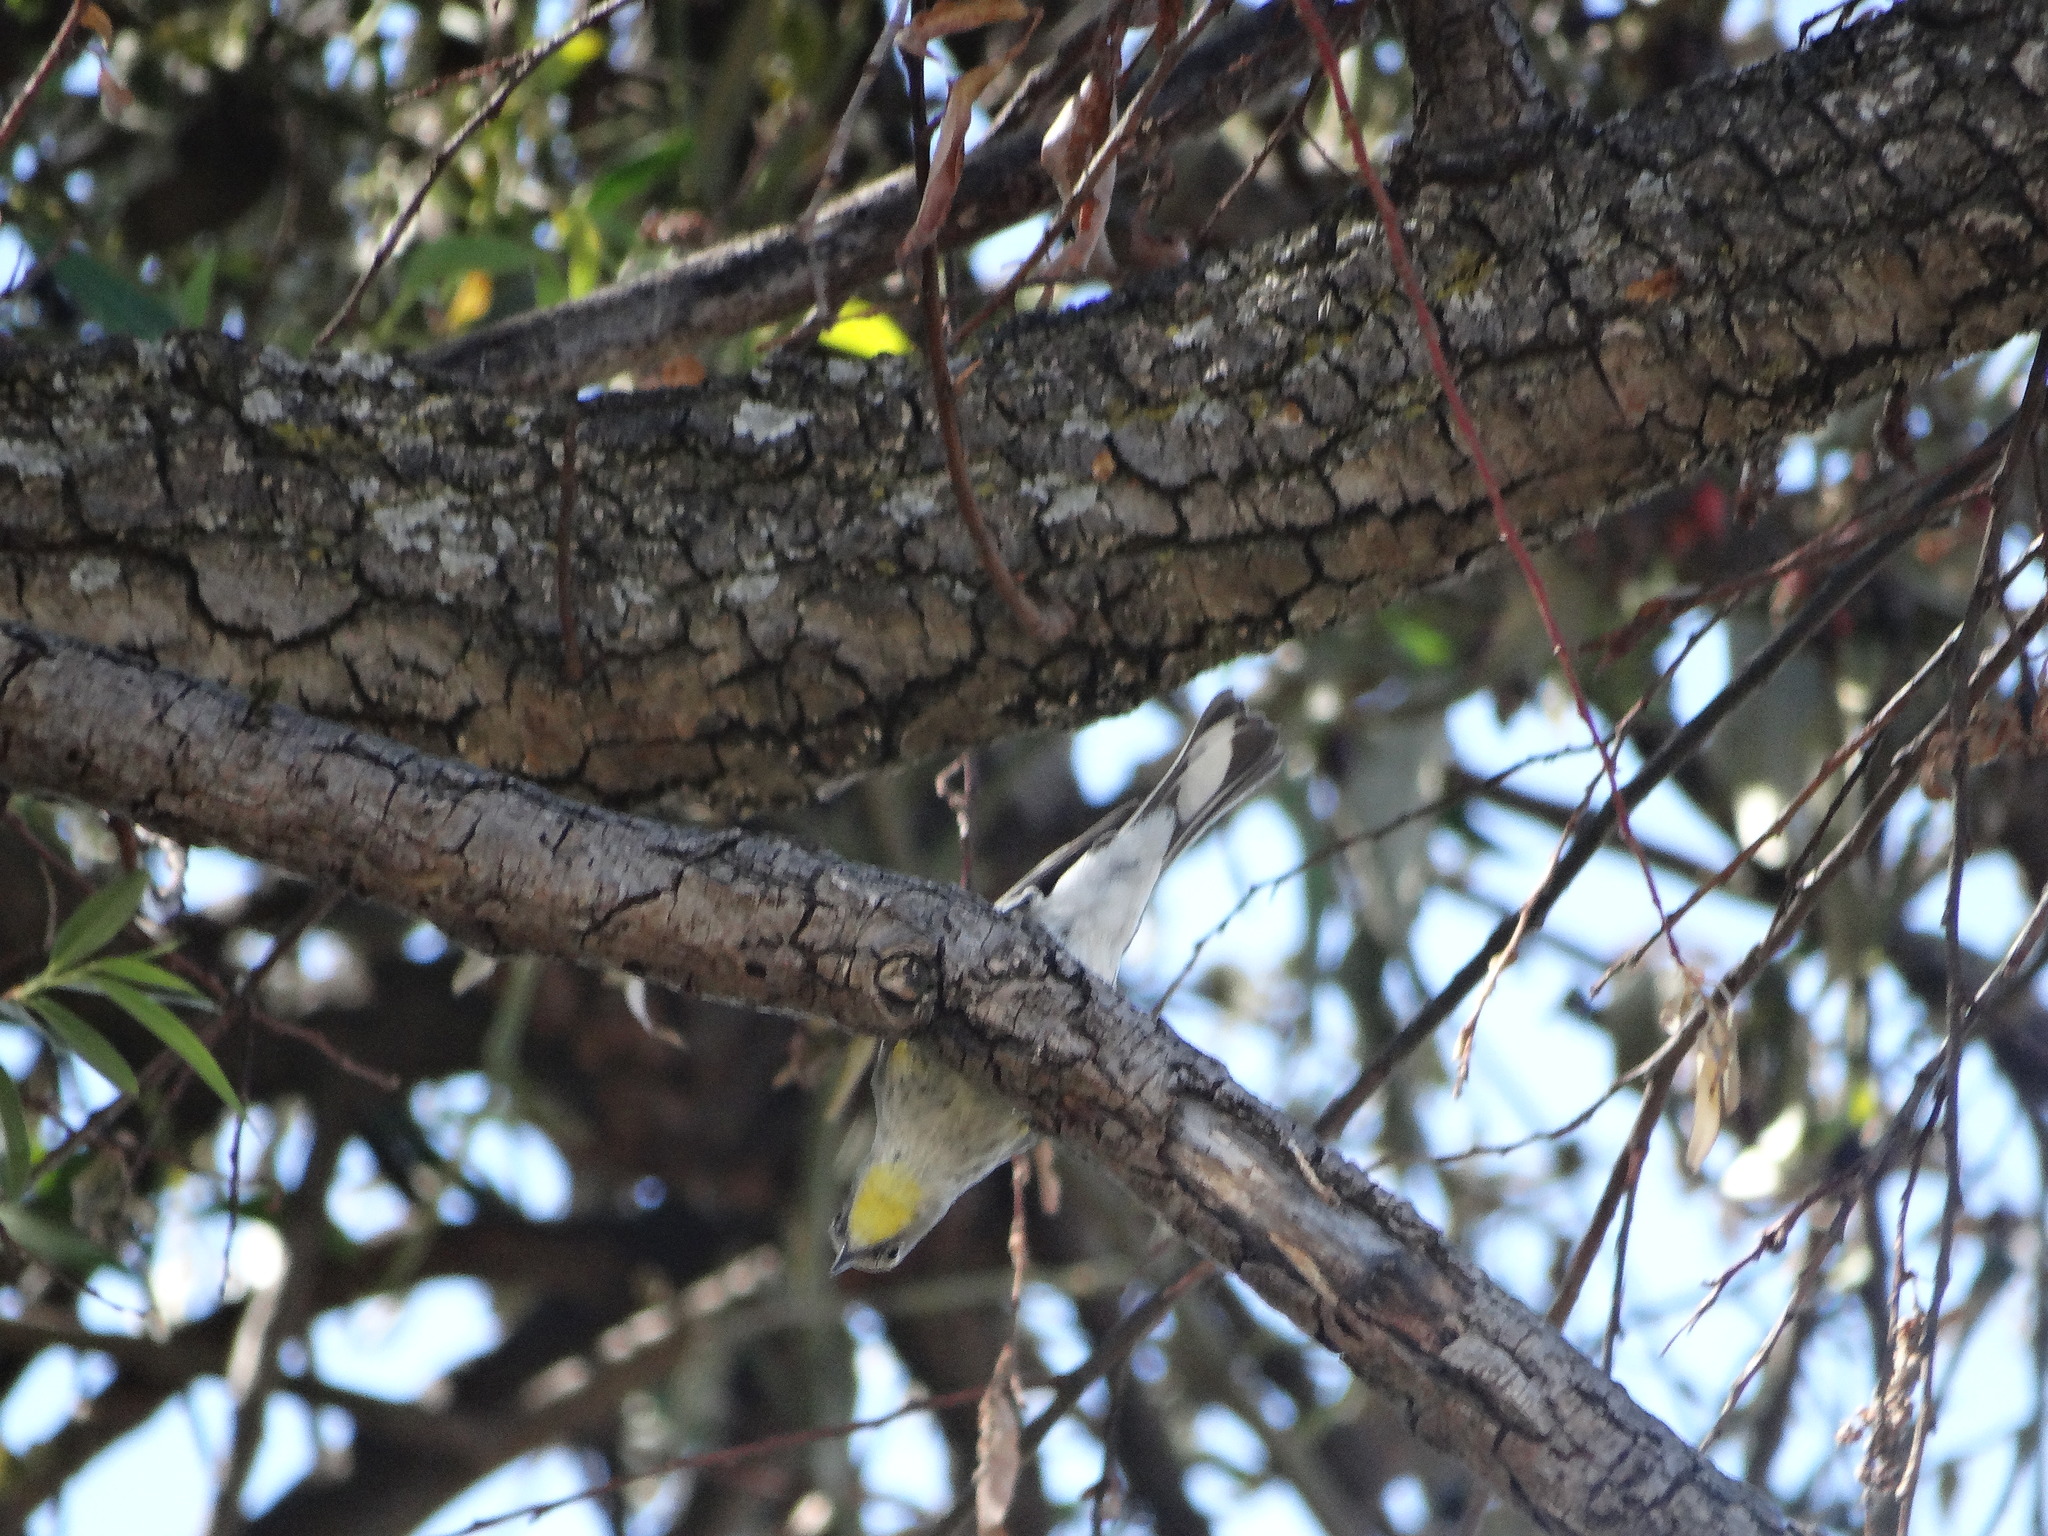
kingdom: Animalia
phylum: Chordata
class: Aves
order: Passeriformes
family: Parulidae
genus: Setophaga
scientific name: Setophaga auduboni
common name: Audubon's warbler
